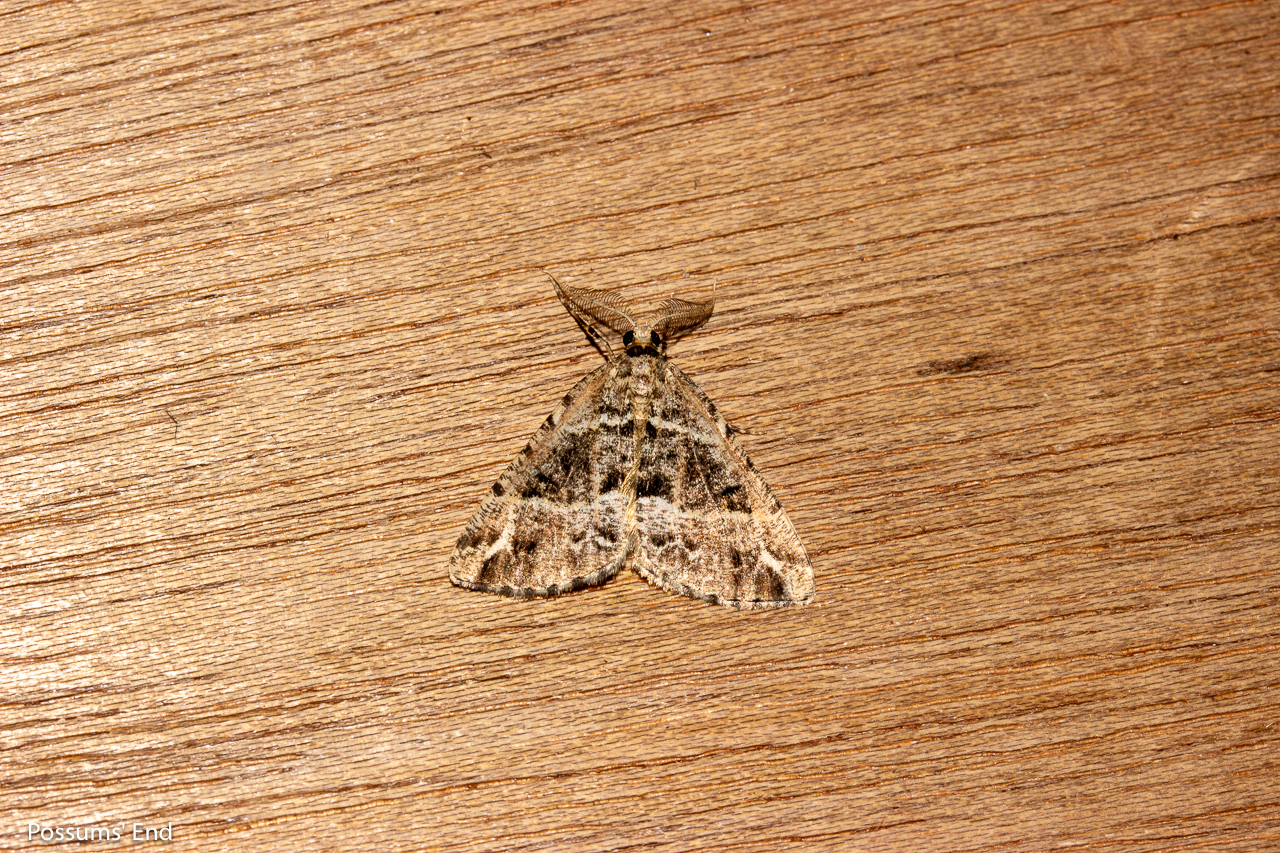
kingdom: Animalia
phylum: Arthropoda
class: Insecta
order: Lepidoptera
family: Geometridae
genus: Pseudocoremia
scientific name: Pseudocoremia melinata
